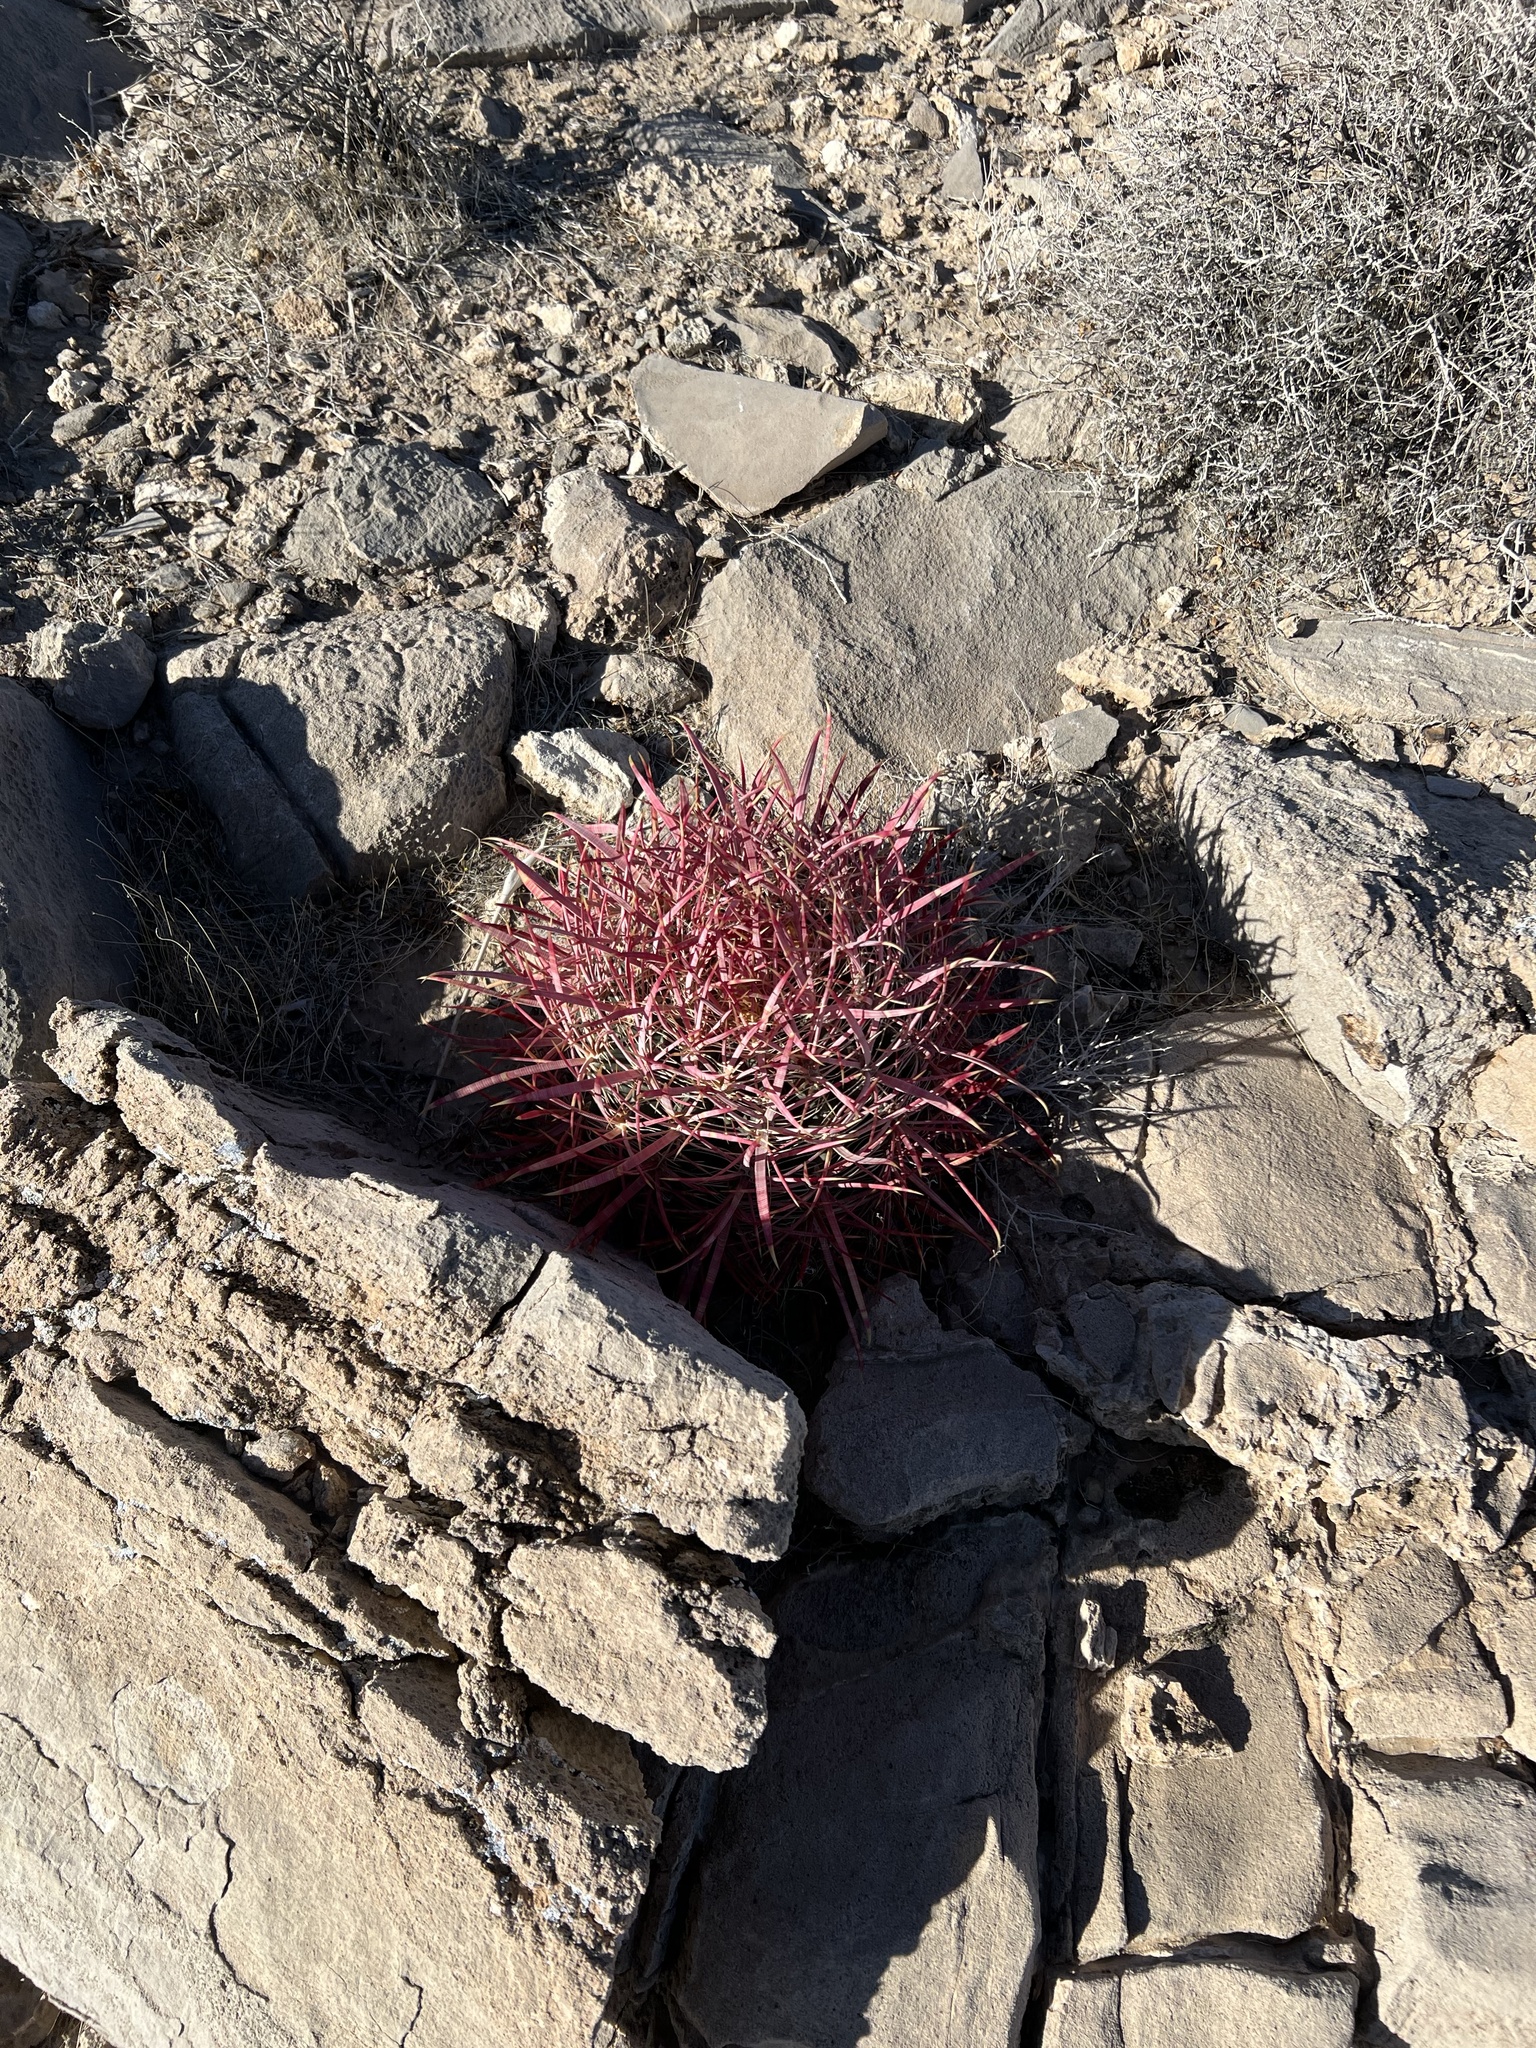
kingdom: Plantae
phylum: Tracheophyta
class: Magnoliopsida
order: Caryophyllales
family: Cactaceae
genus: Ferocactus
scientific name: Ferocactus cylindraceus
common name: California barrel cactus
